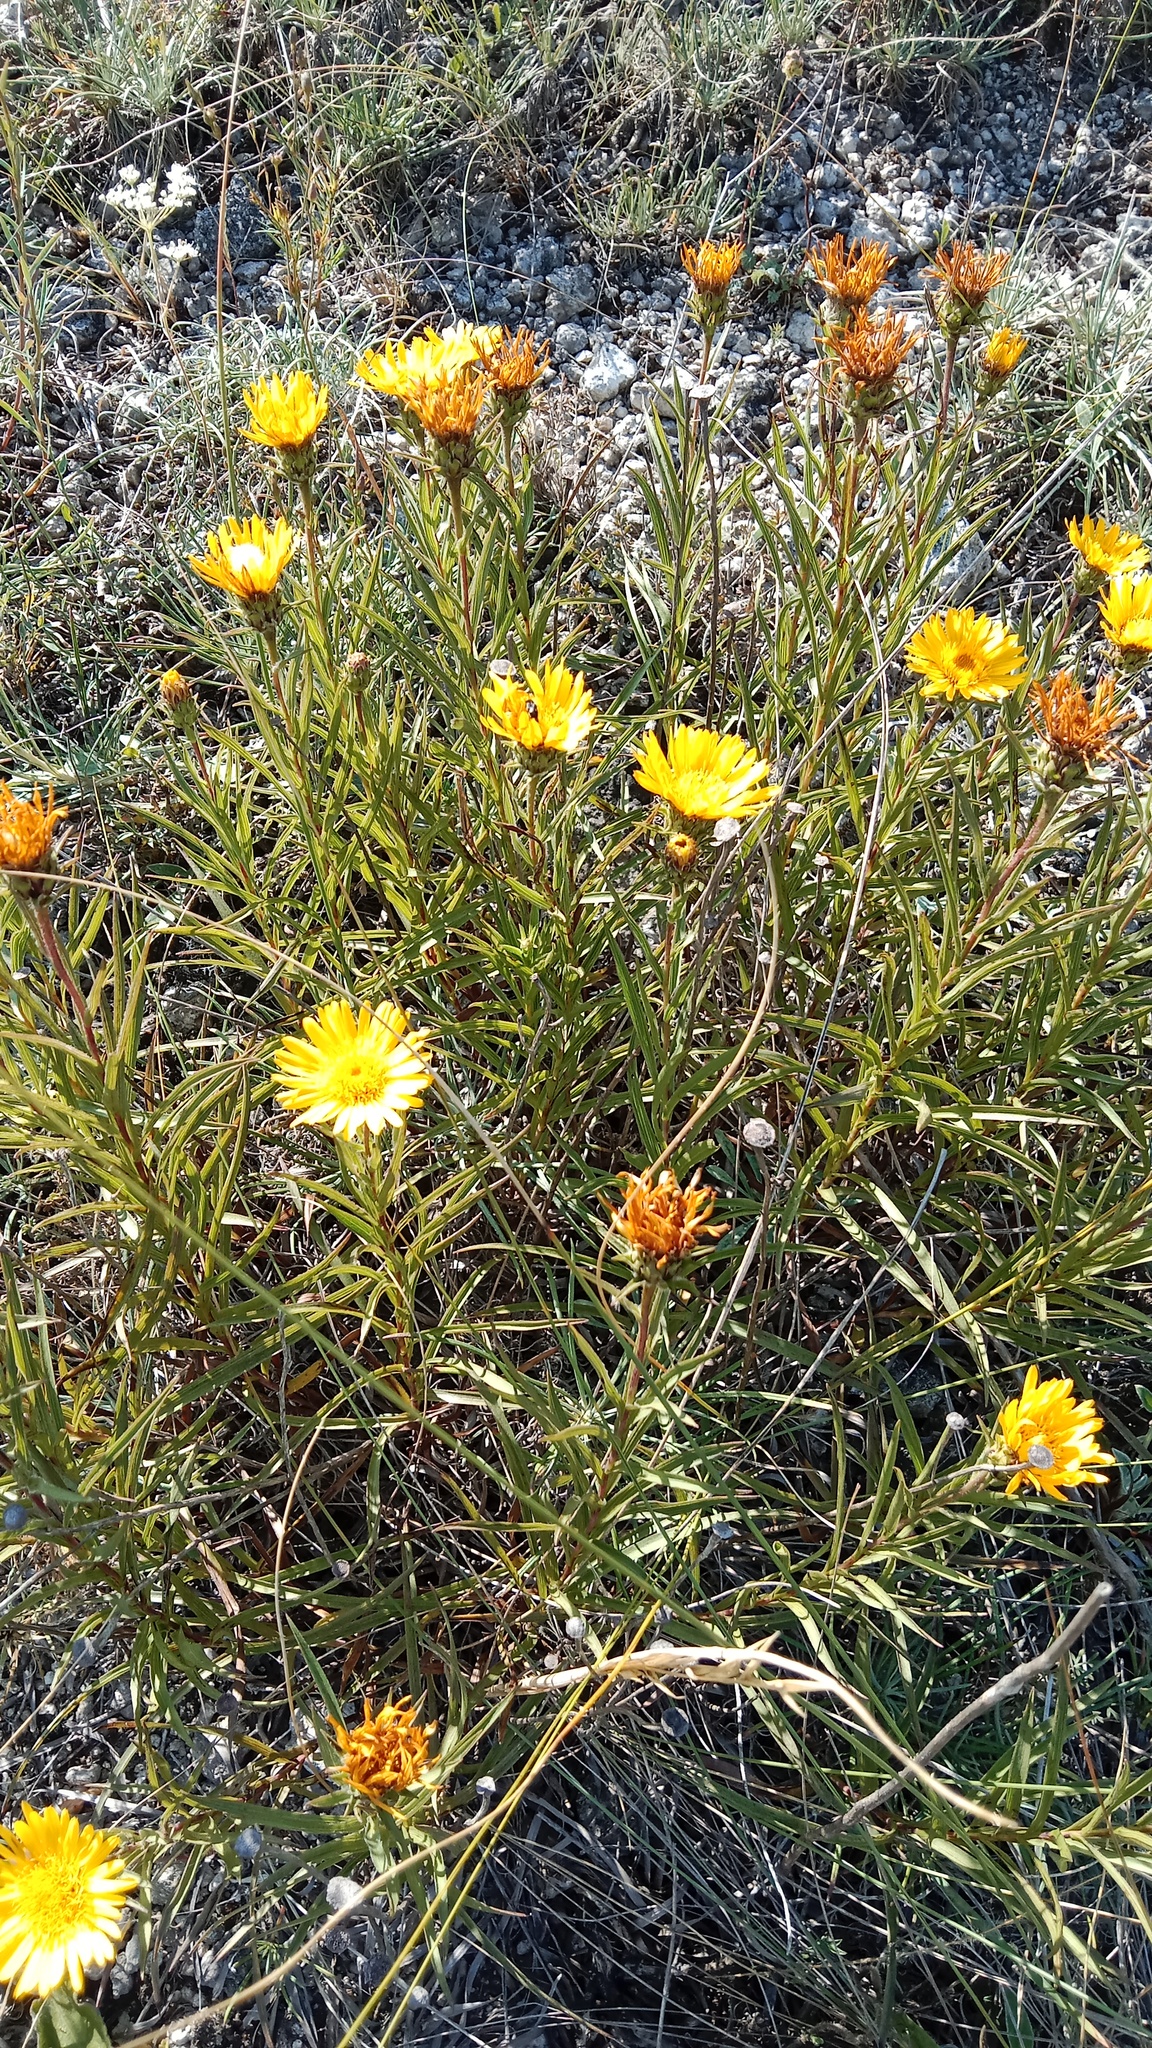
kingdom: Plantae
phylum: Tracheophyta
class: Magnoliopsida
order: Asterales
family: Asteraceae
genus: Pentanema
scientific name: Pentanema ensifolium
